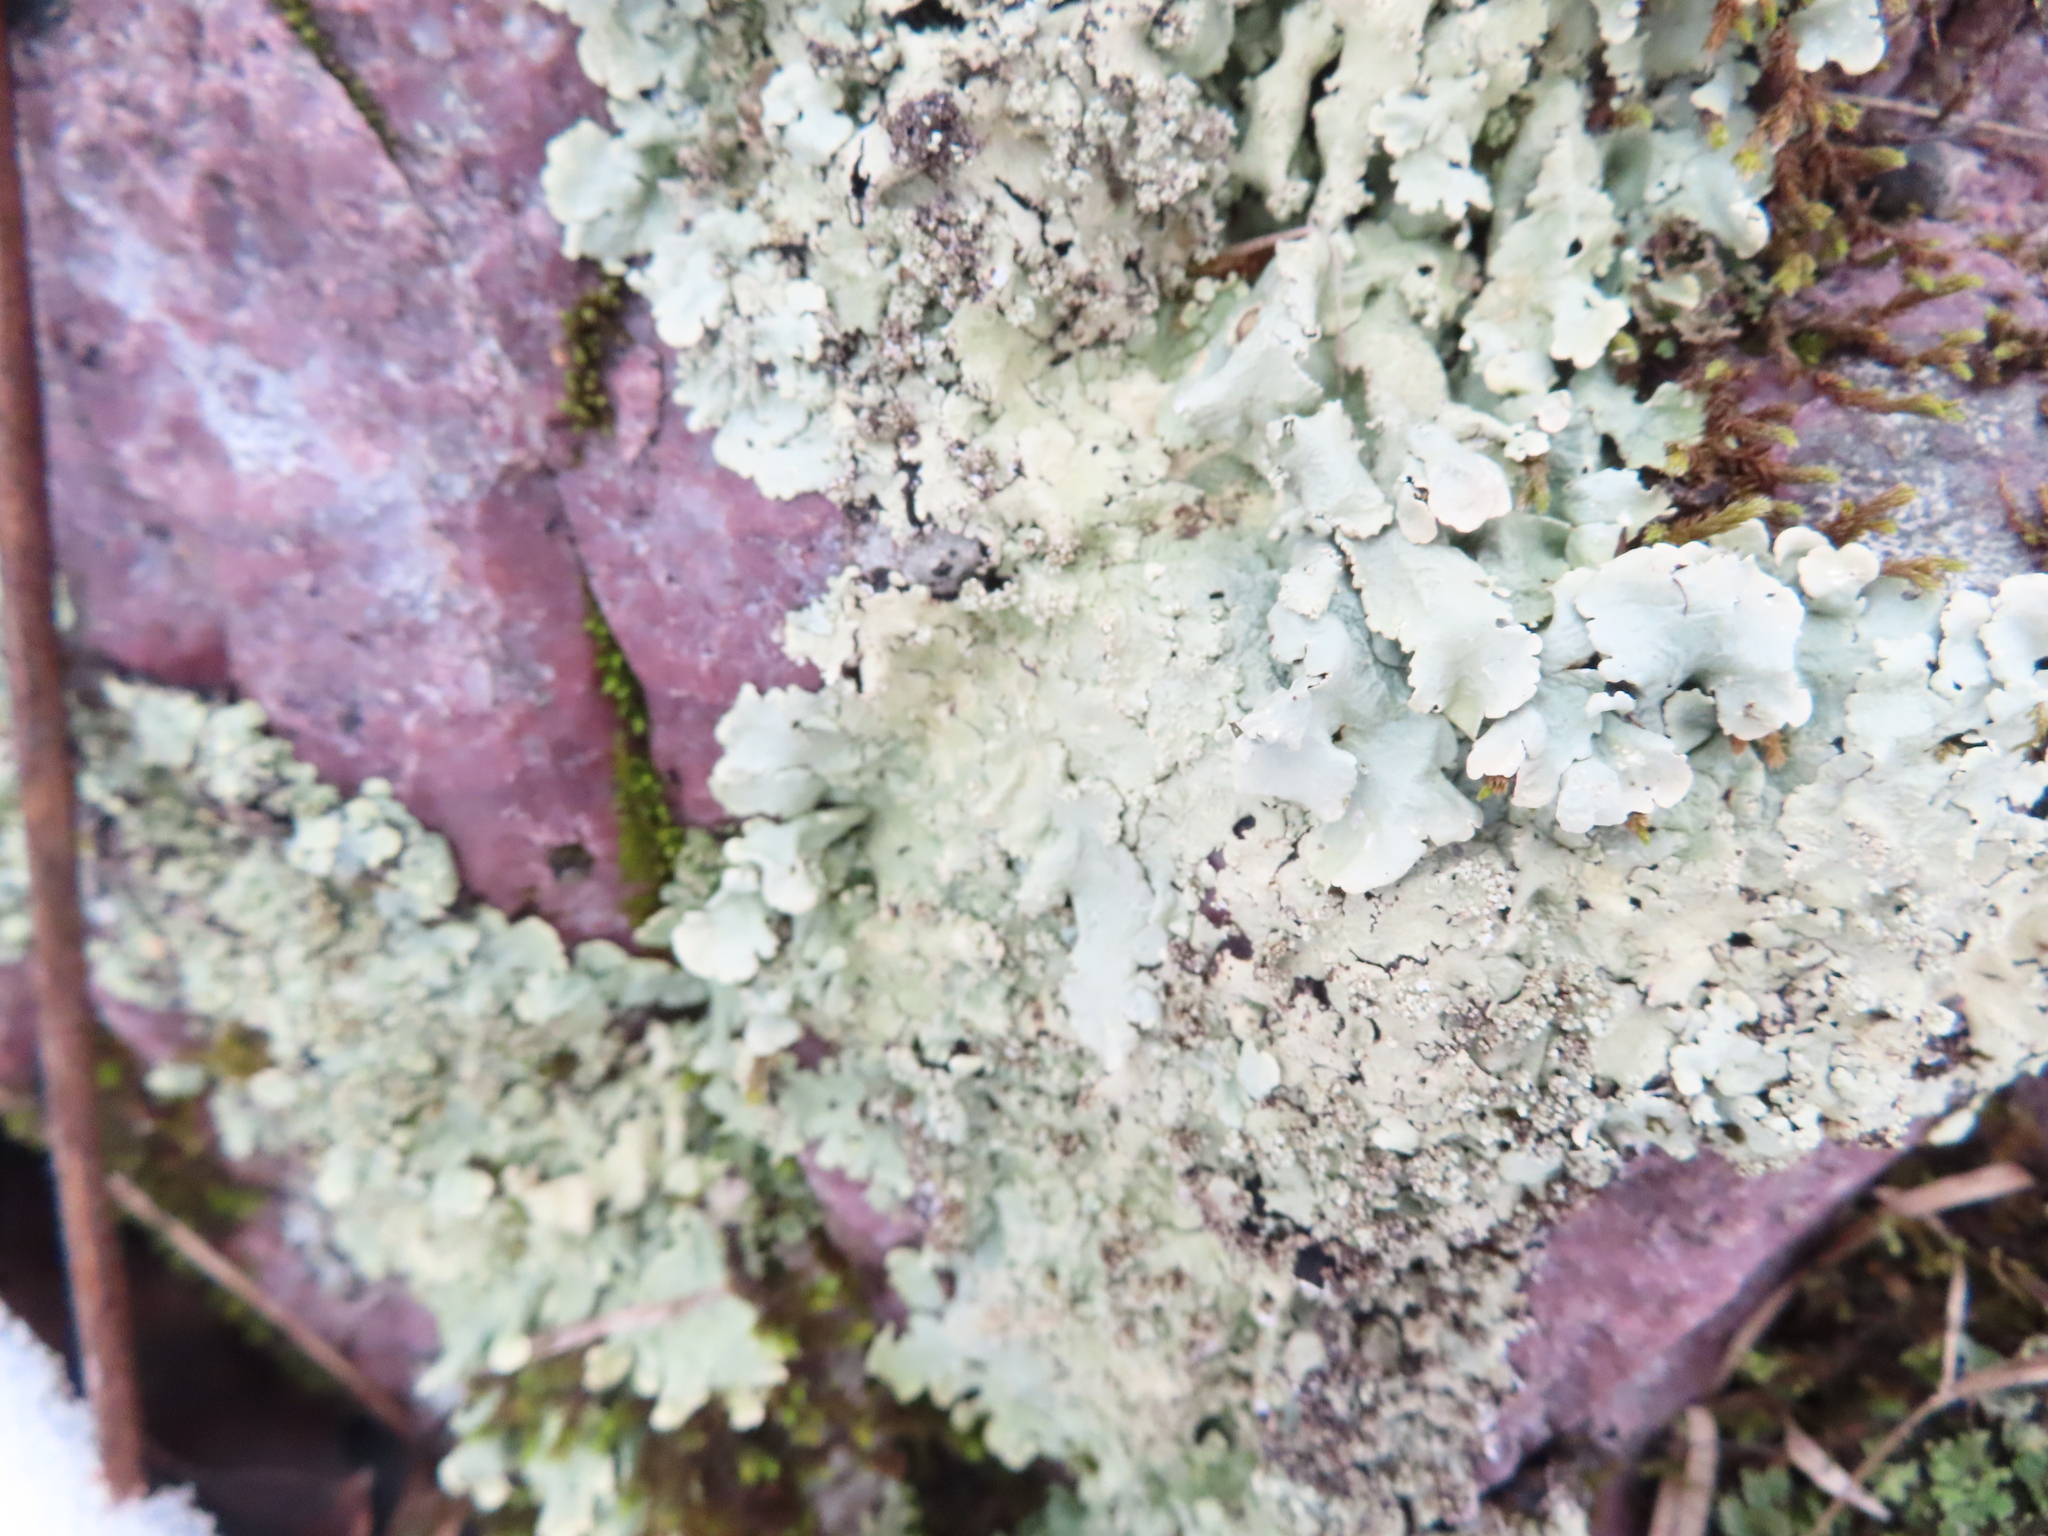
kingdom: Fungi
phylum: Ascomycota
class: Lecanoromycetes
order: Lecanorales
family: Parmeliaceae
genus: Flavoparmelia
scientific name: Flavoparmelia baltimorensis
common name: Rock greenshield
